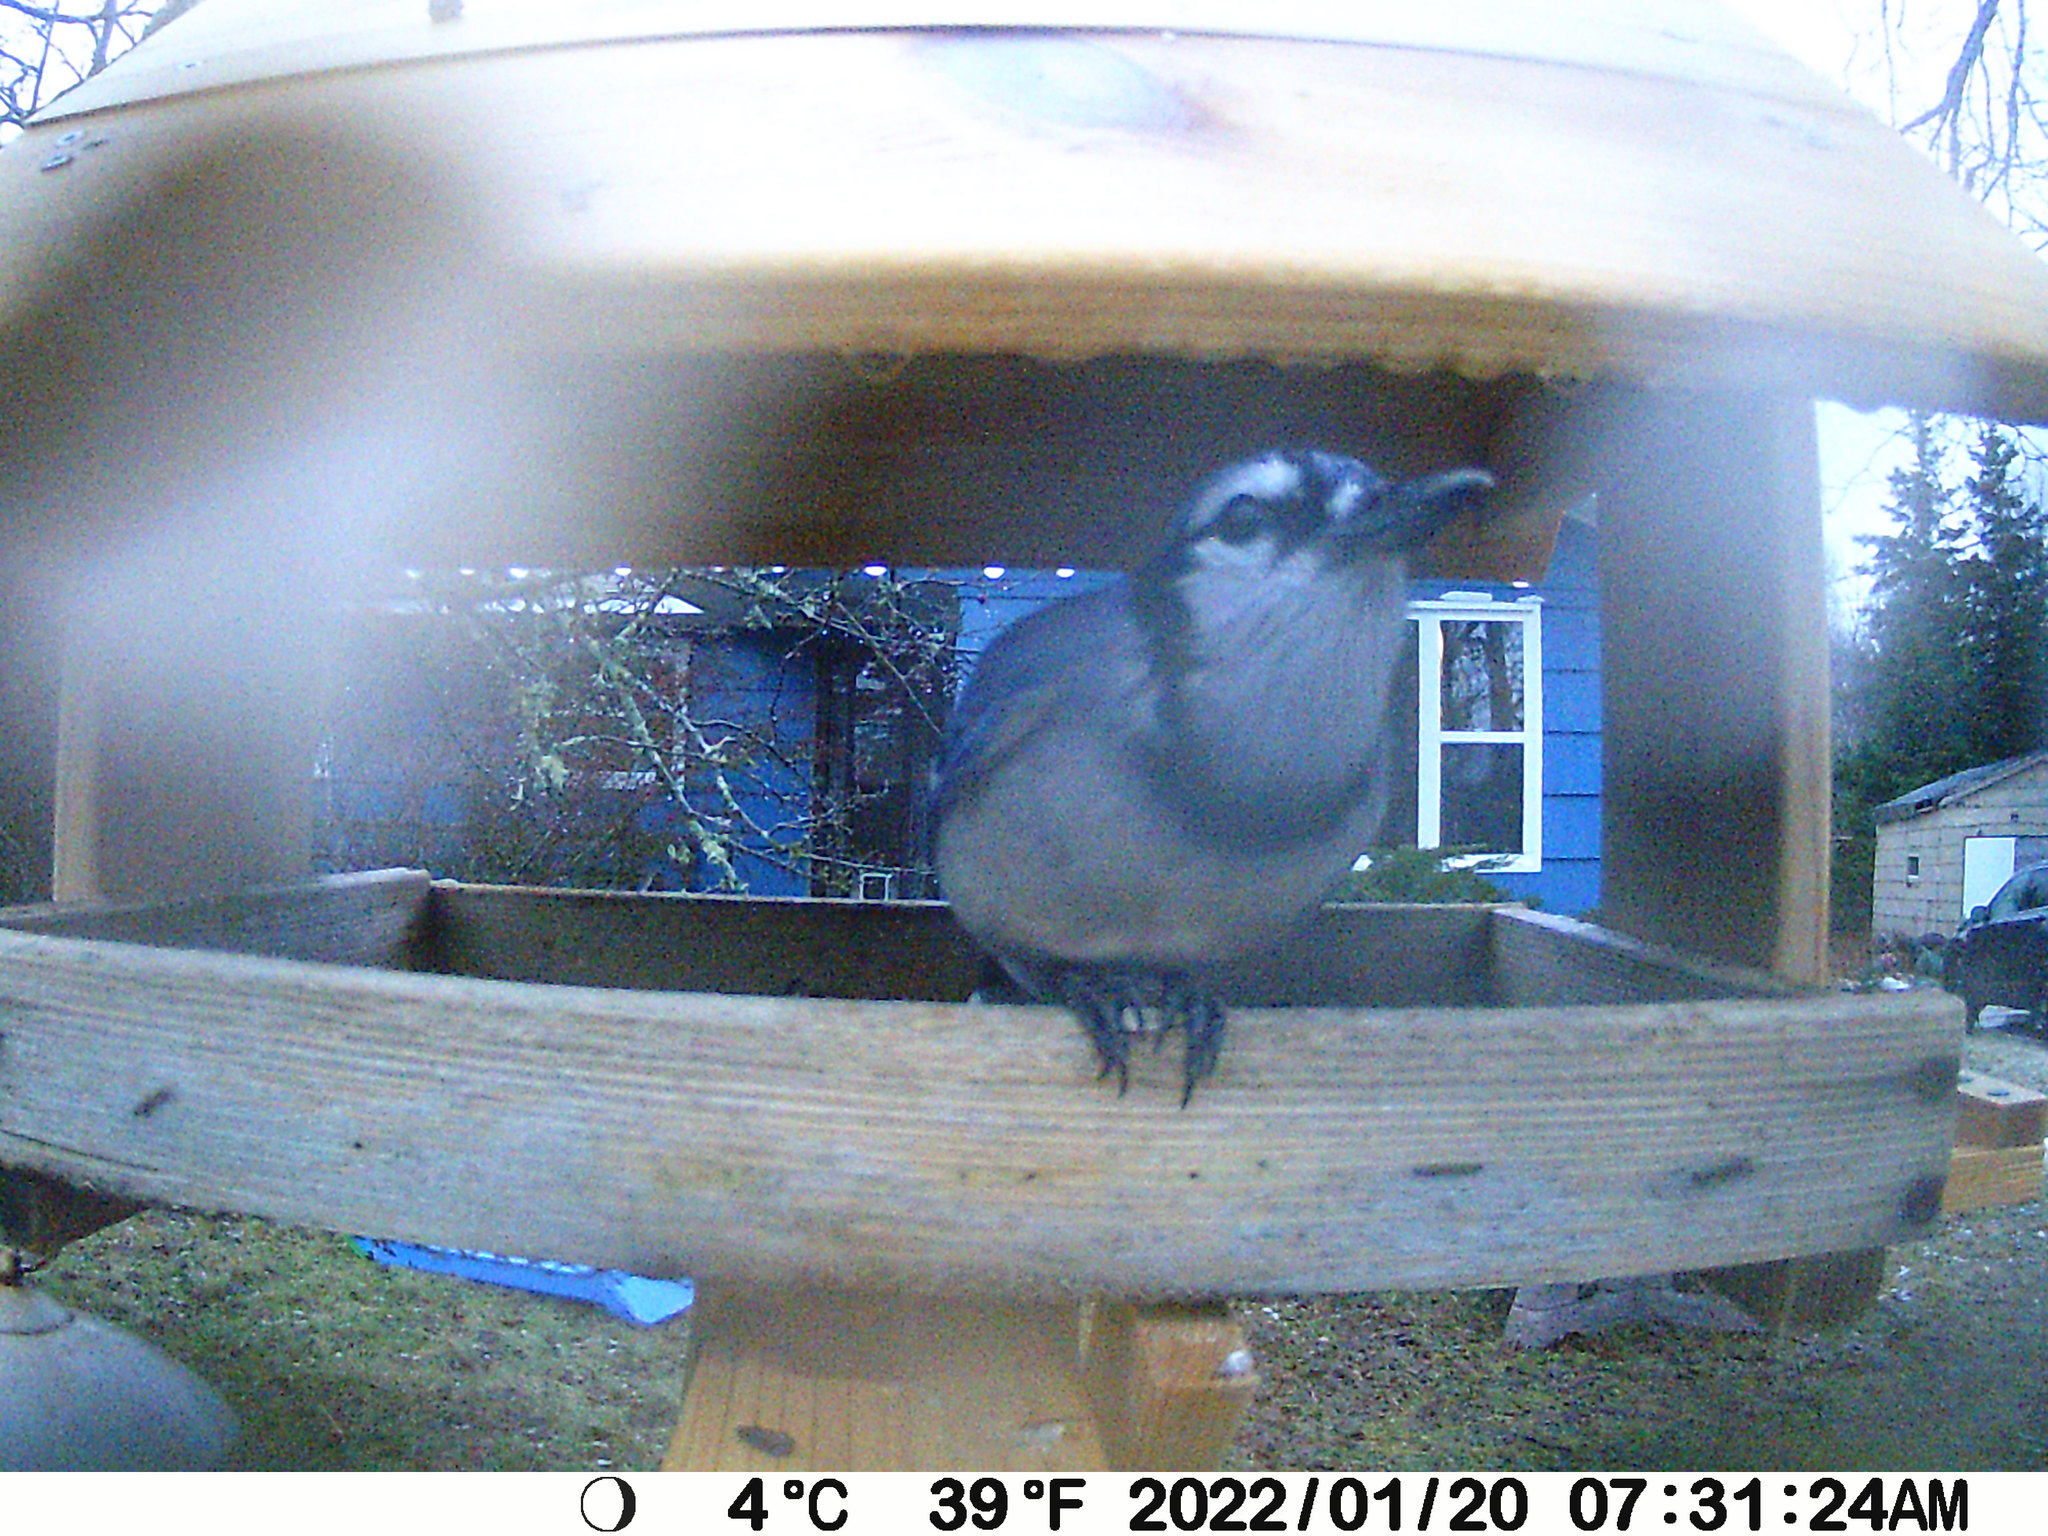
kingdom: Animalia
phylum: Chordata
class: Aves
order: Passeriformes
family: Corvidae
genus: Cyanocitta
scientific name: Cyanocitta cristata
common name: Blue jay
